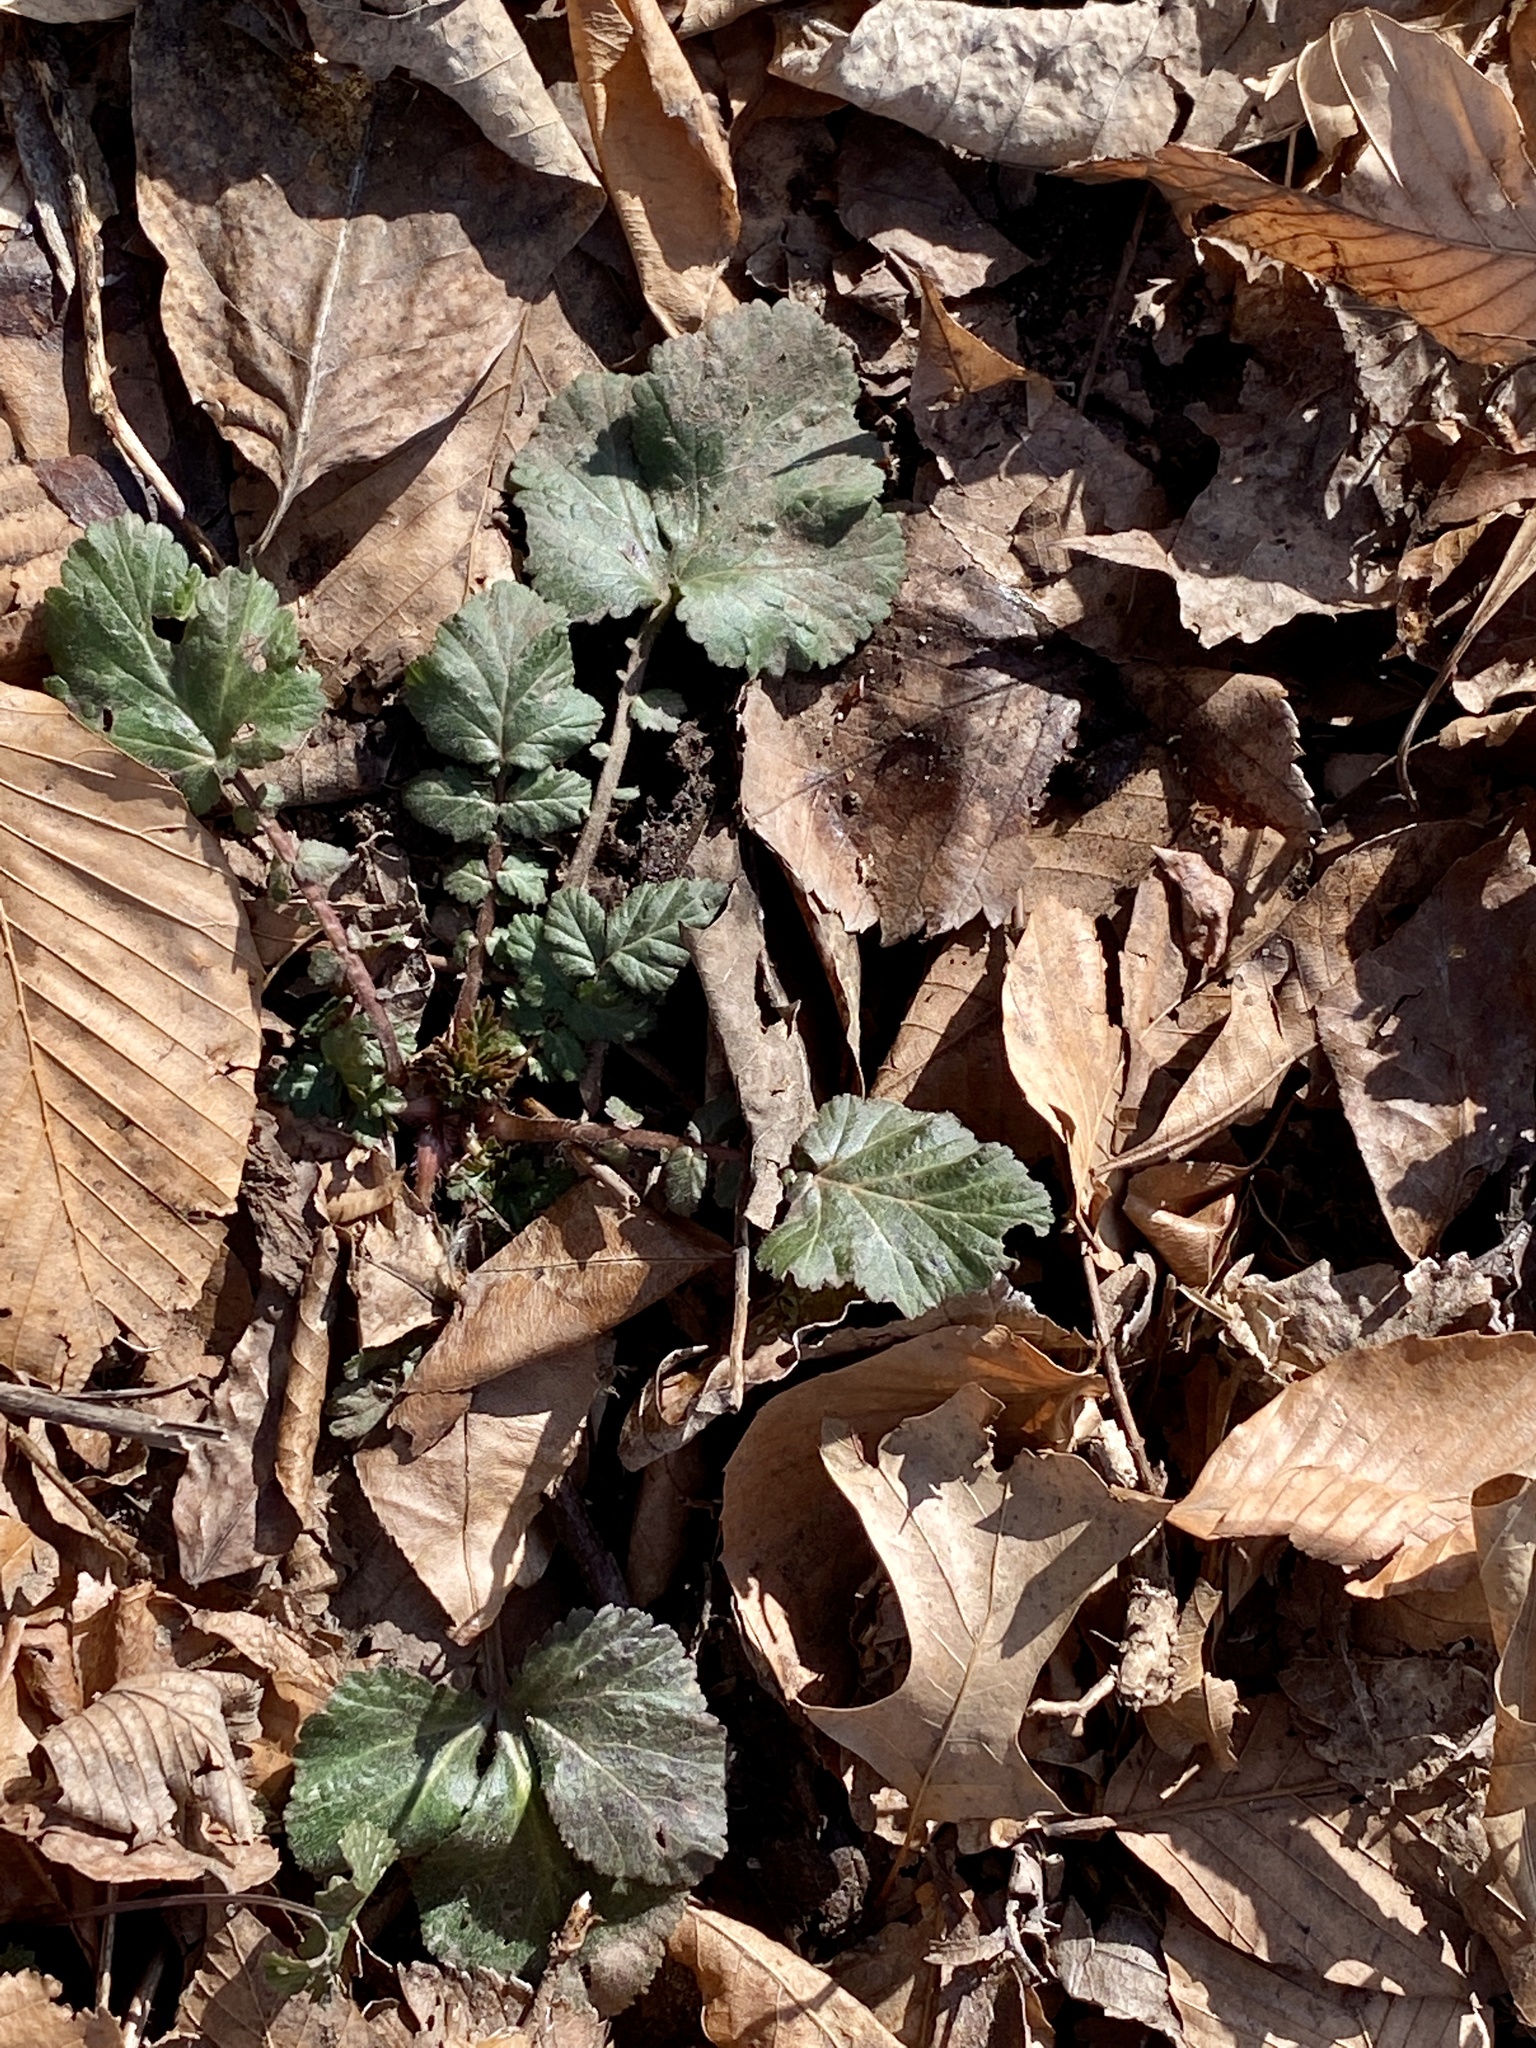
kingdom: Plantae
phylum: Tracheophyta
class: Magnoliopsida
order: Rosales
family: Rosaceae
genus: Geum
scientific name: Geum canadense
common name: White avens
